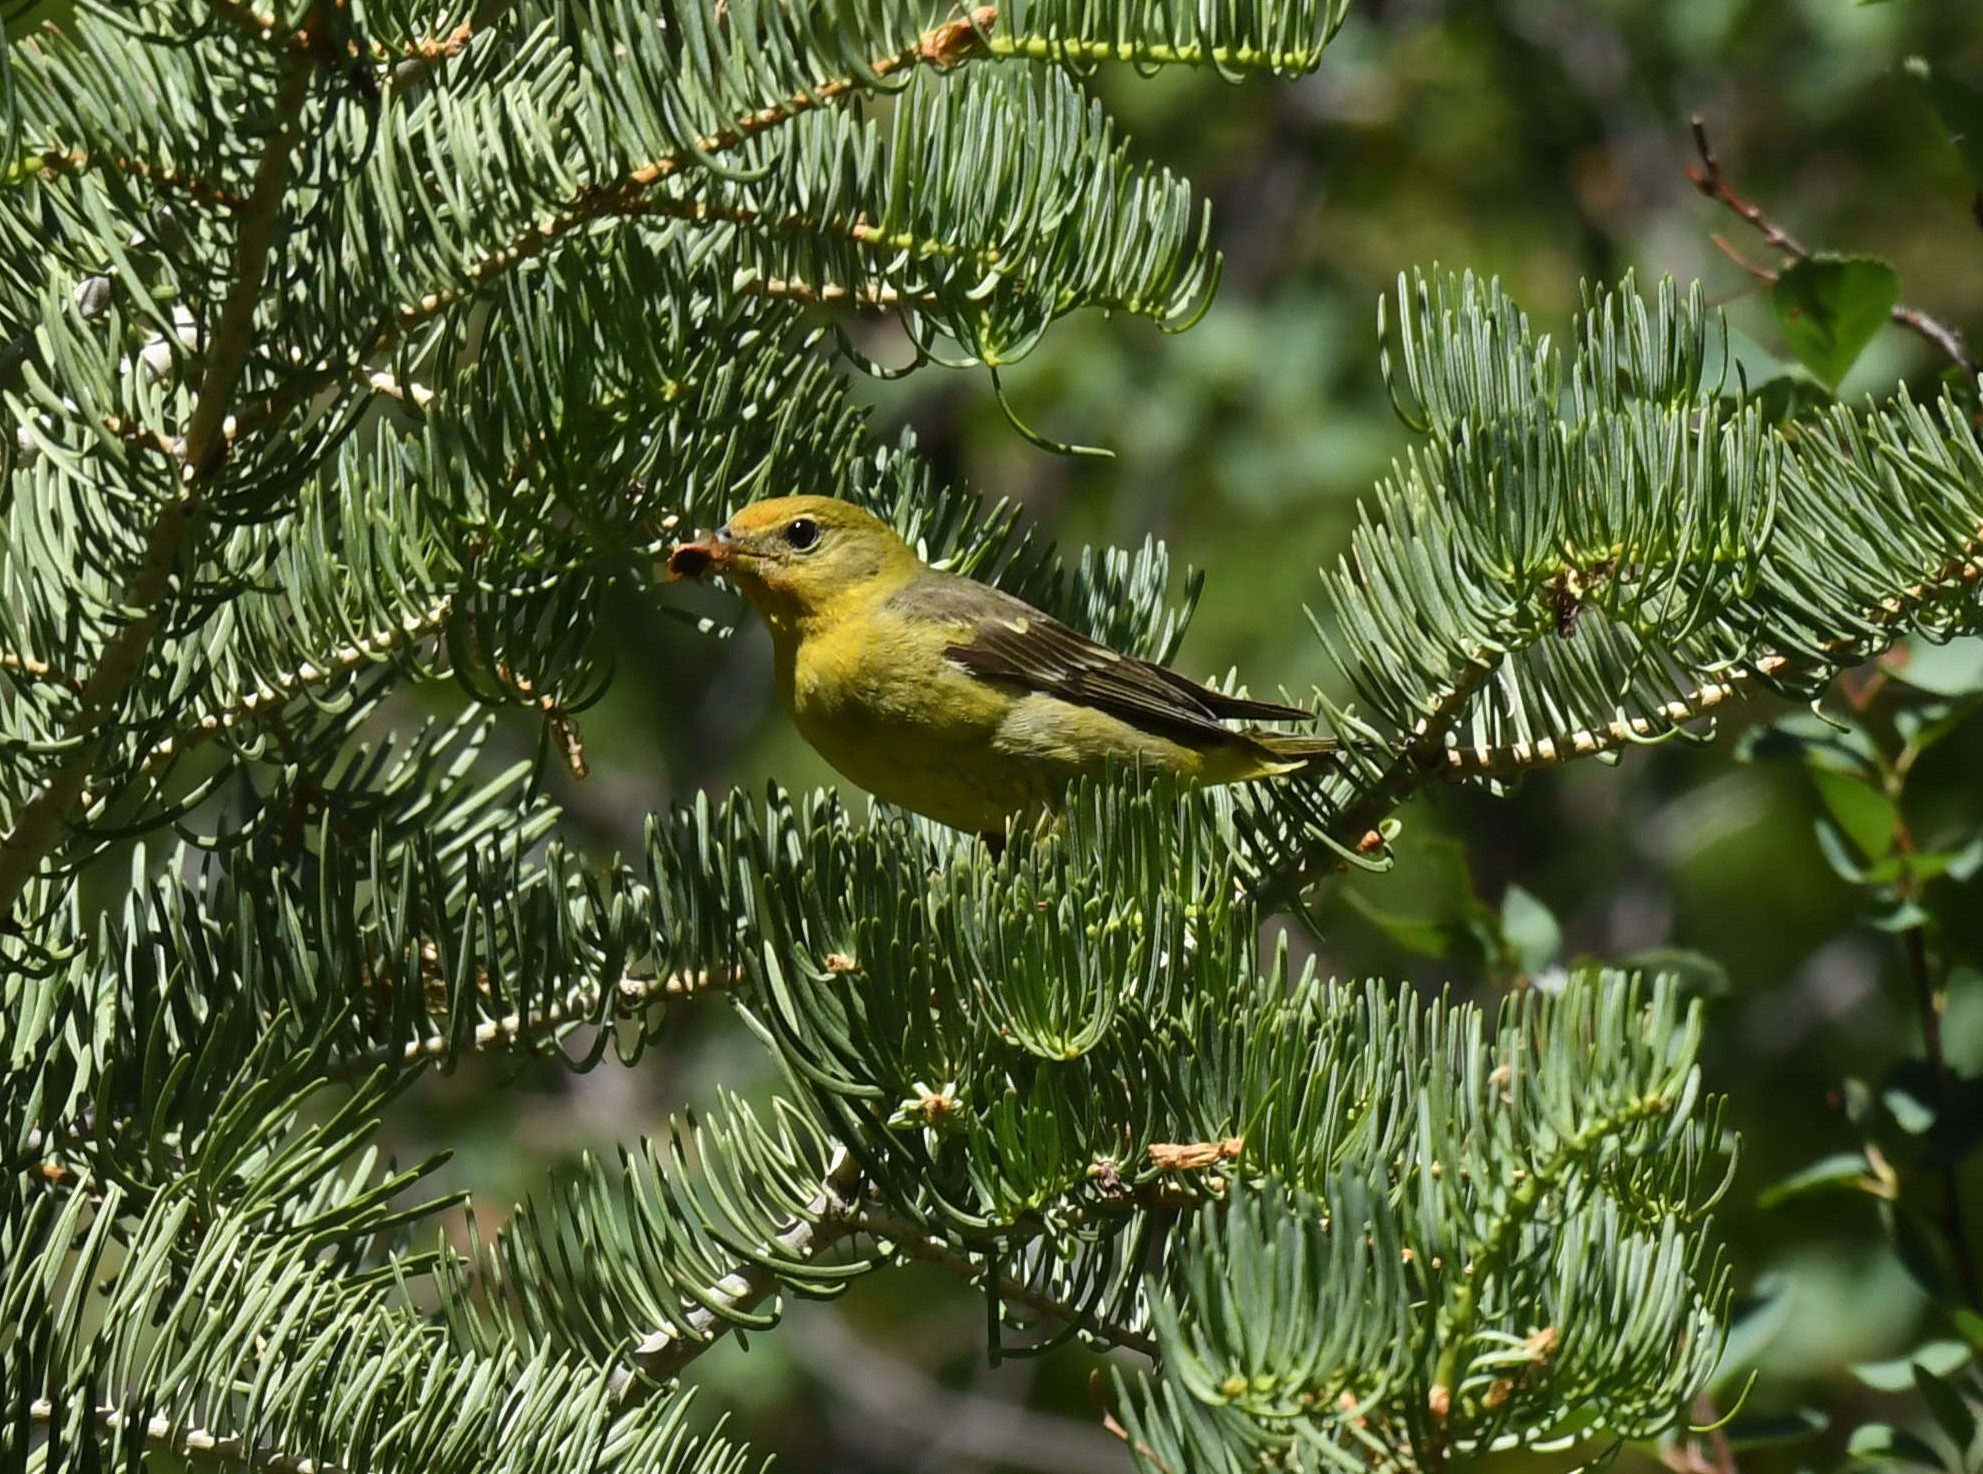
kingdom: Animalia
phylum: Chordata
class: Aves
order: Passeriformes
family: Cardinalidae
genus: Piranga
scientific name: Piranga ludoviciana
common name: Western tanager
